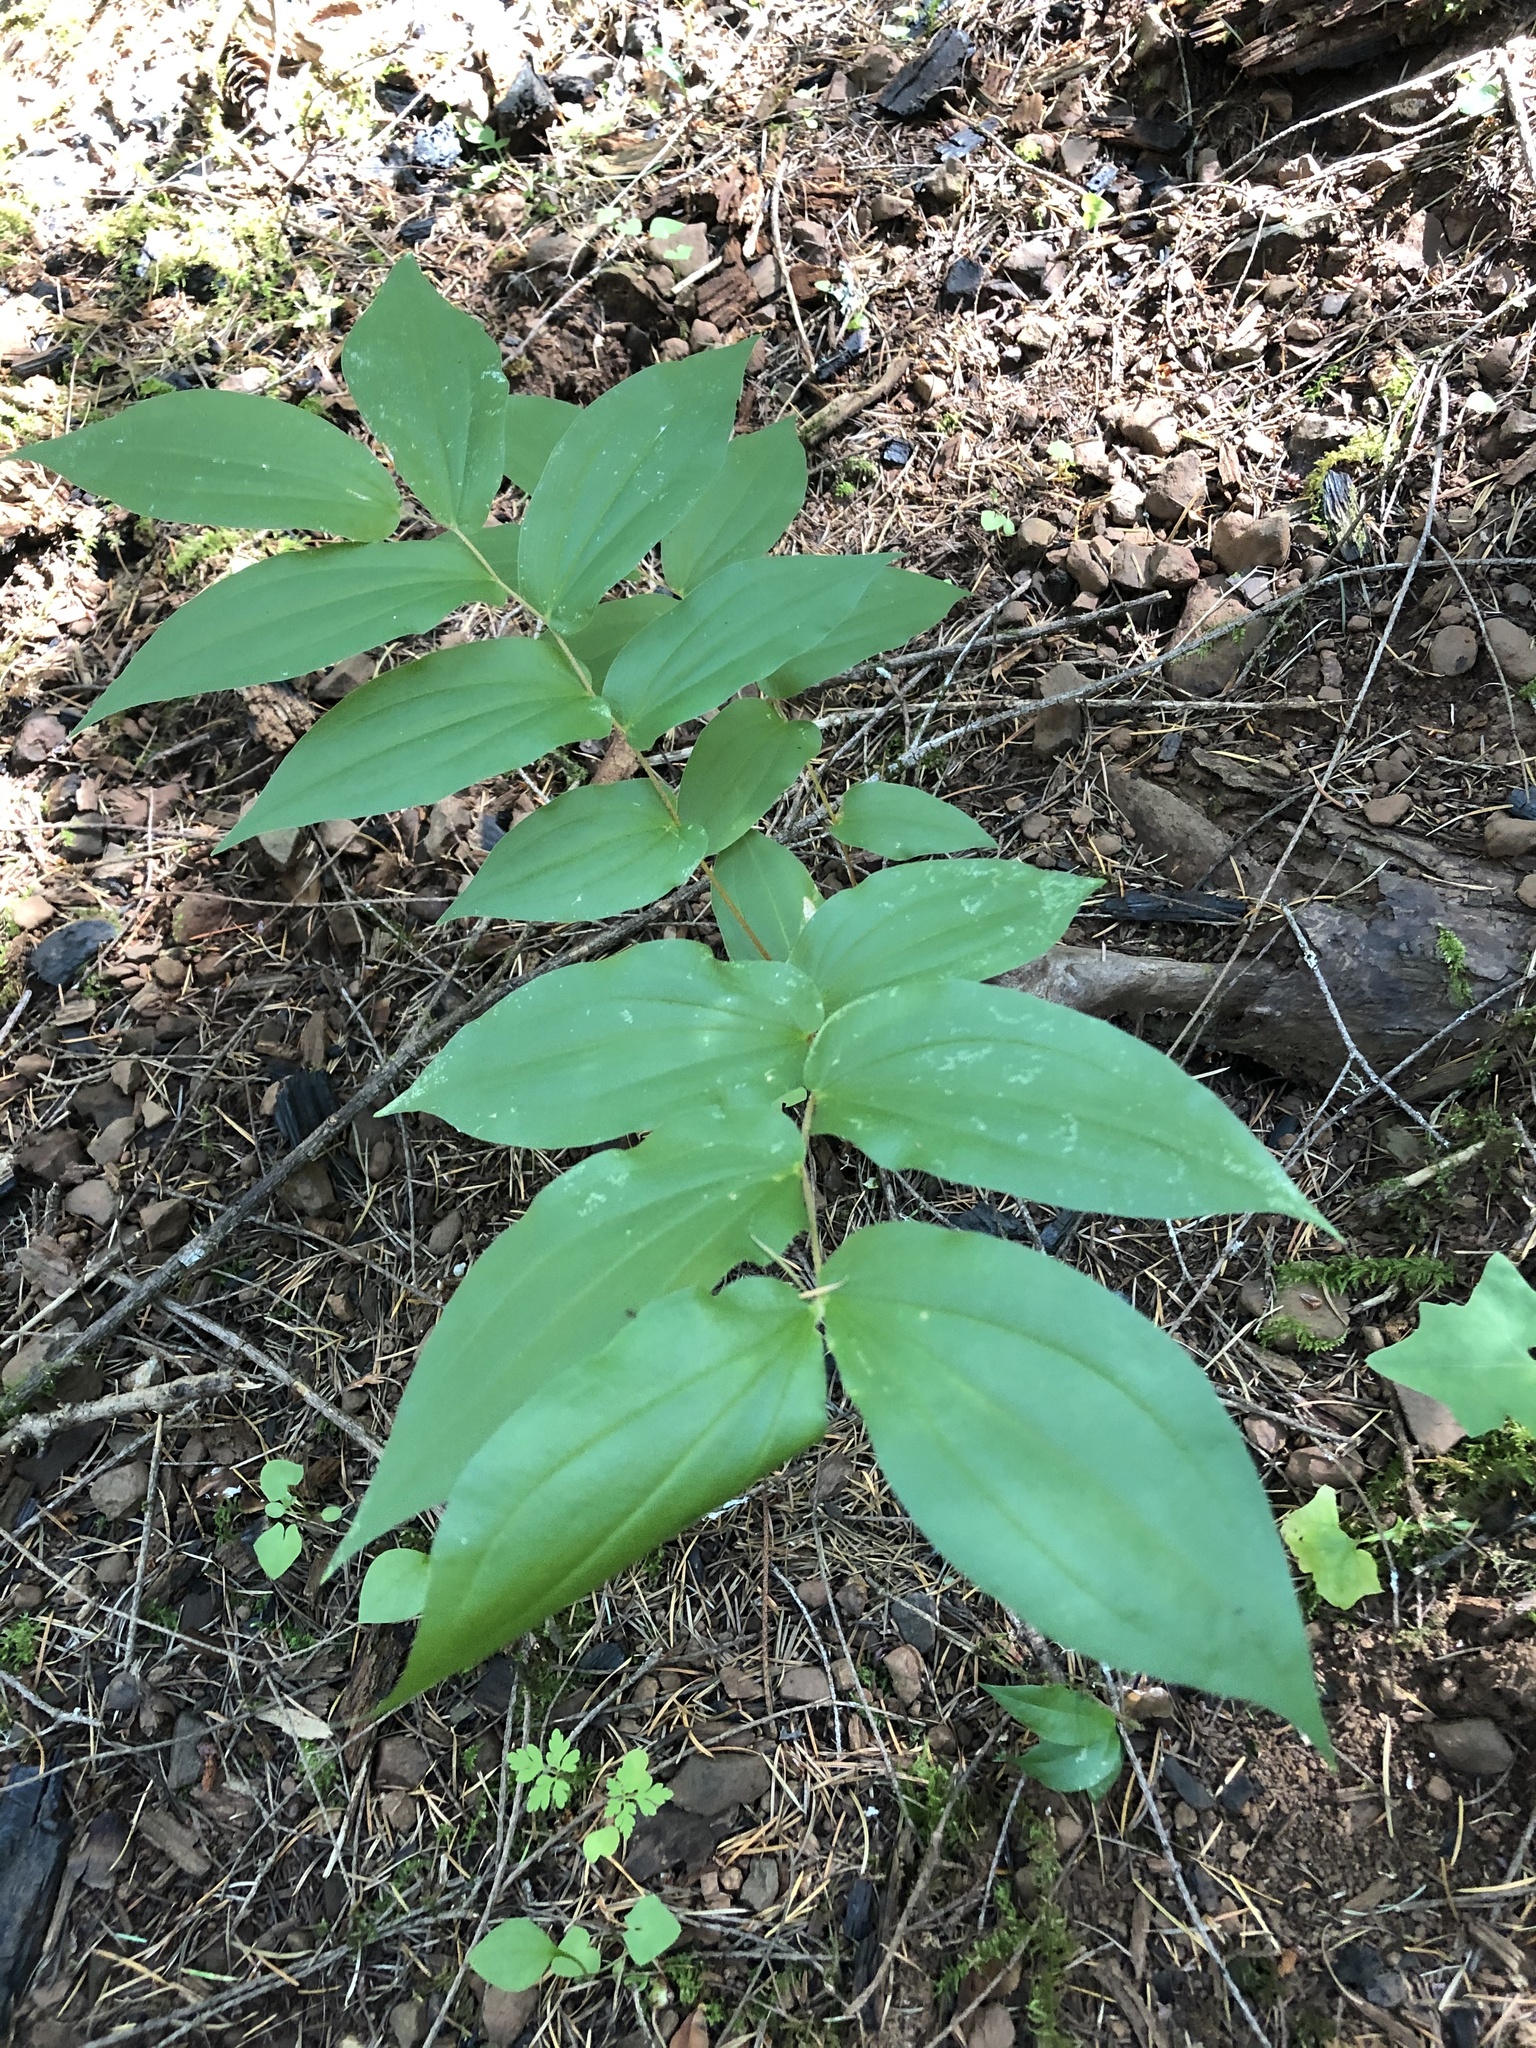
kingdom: Plantae
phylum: Tracheophyta
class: Liliopsida
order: Liliales
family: Liliaceae
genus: Prosartes
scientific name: Prosartes hookeri
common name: Fairy-bells
